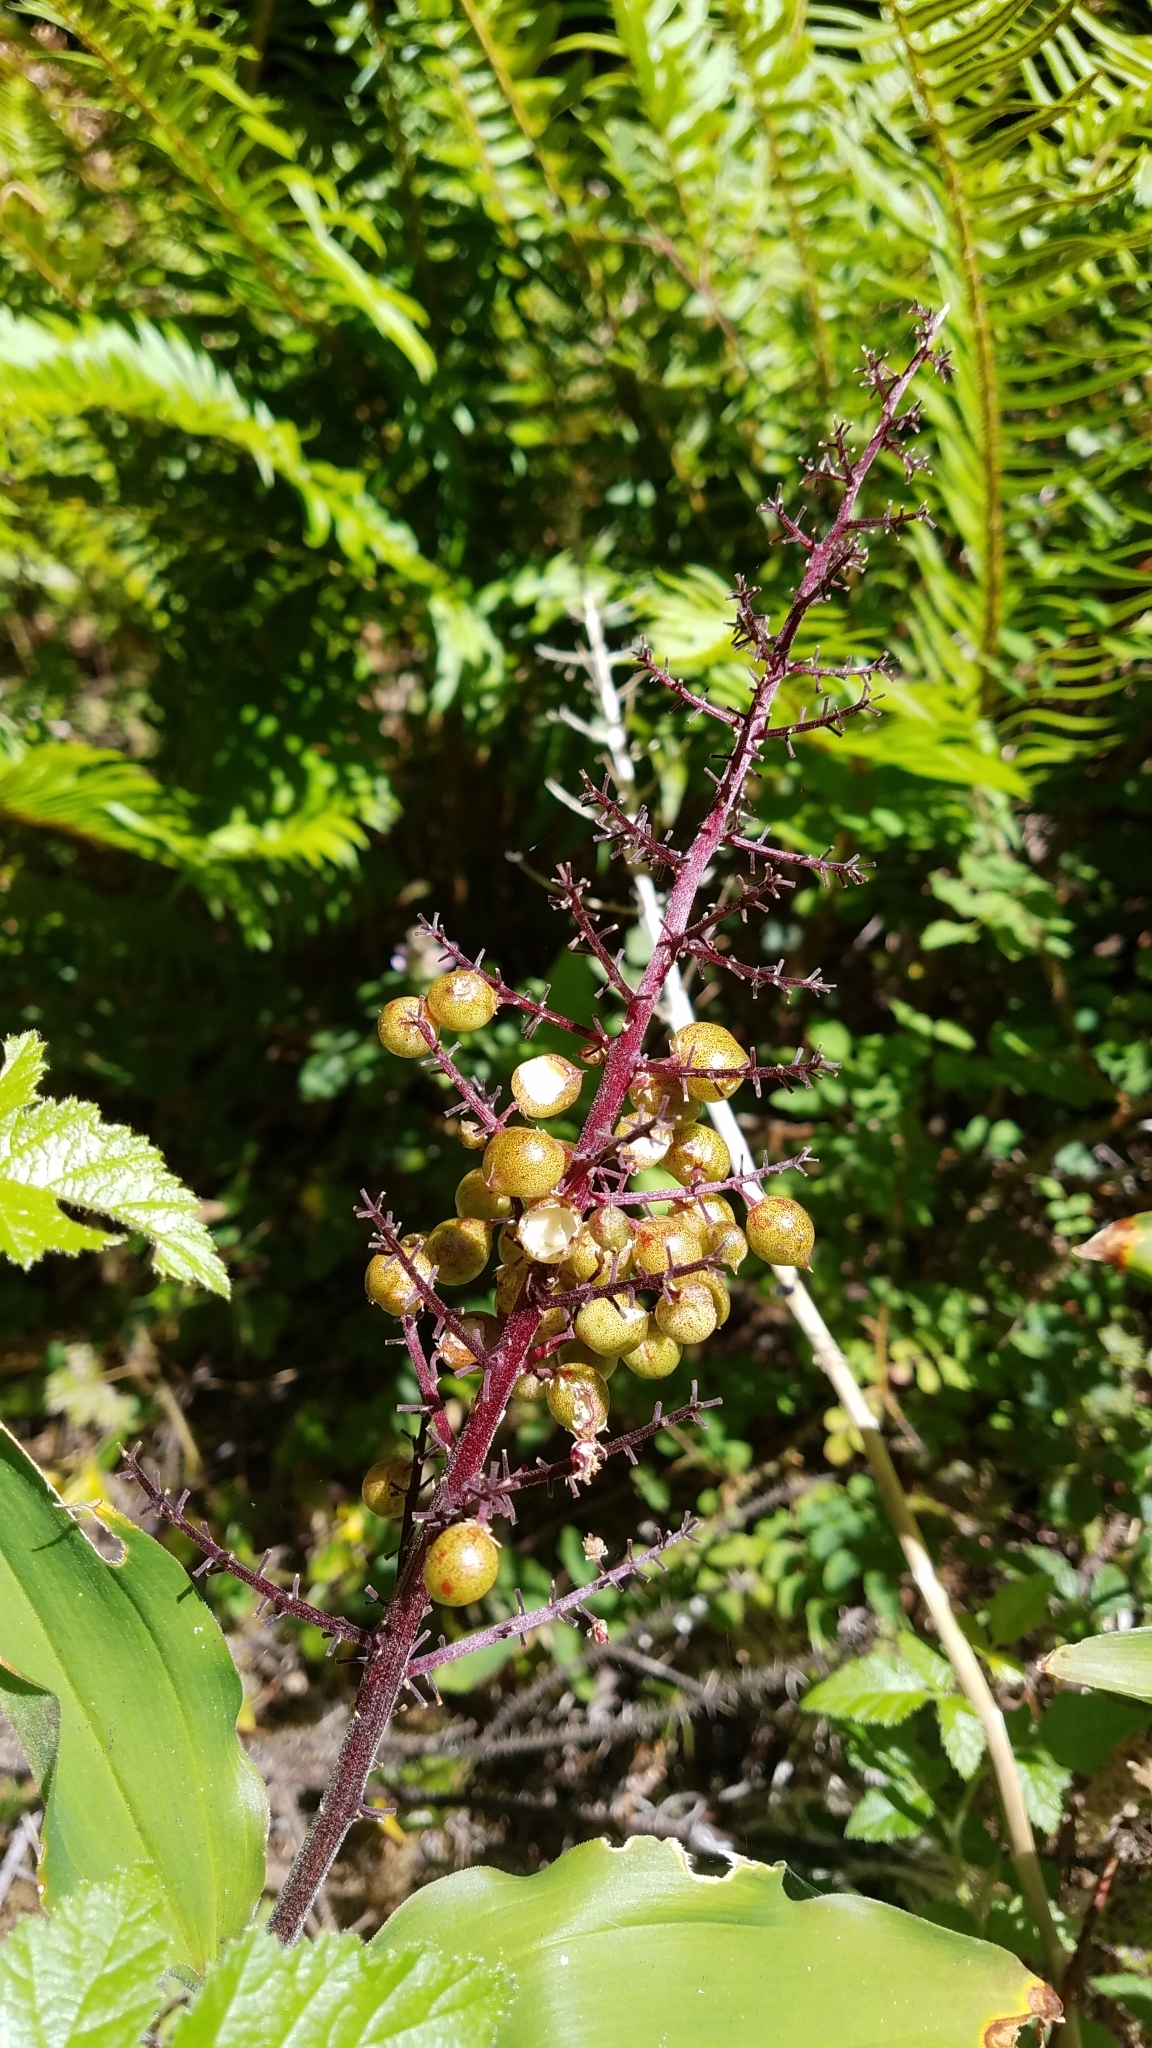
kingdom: Plantae
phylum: Tracheophyta
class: Liliopsida
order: Asparagales
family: Asparagaceae
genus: Maianthemum
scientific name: Maianthemum racemosum
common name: False spikenard
